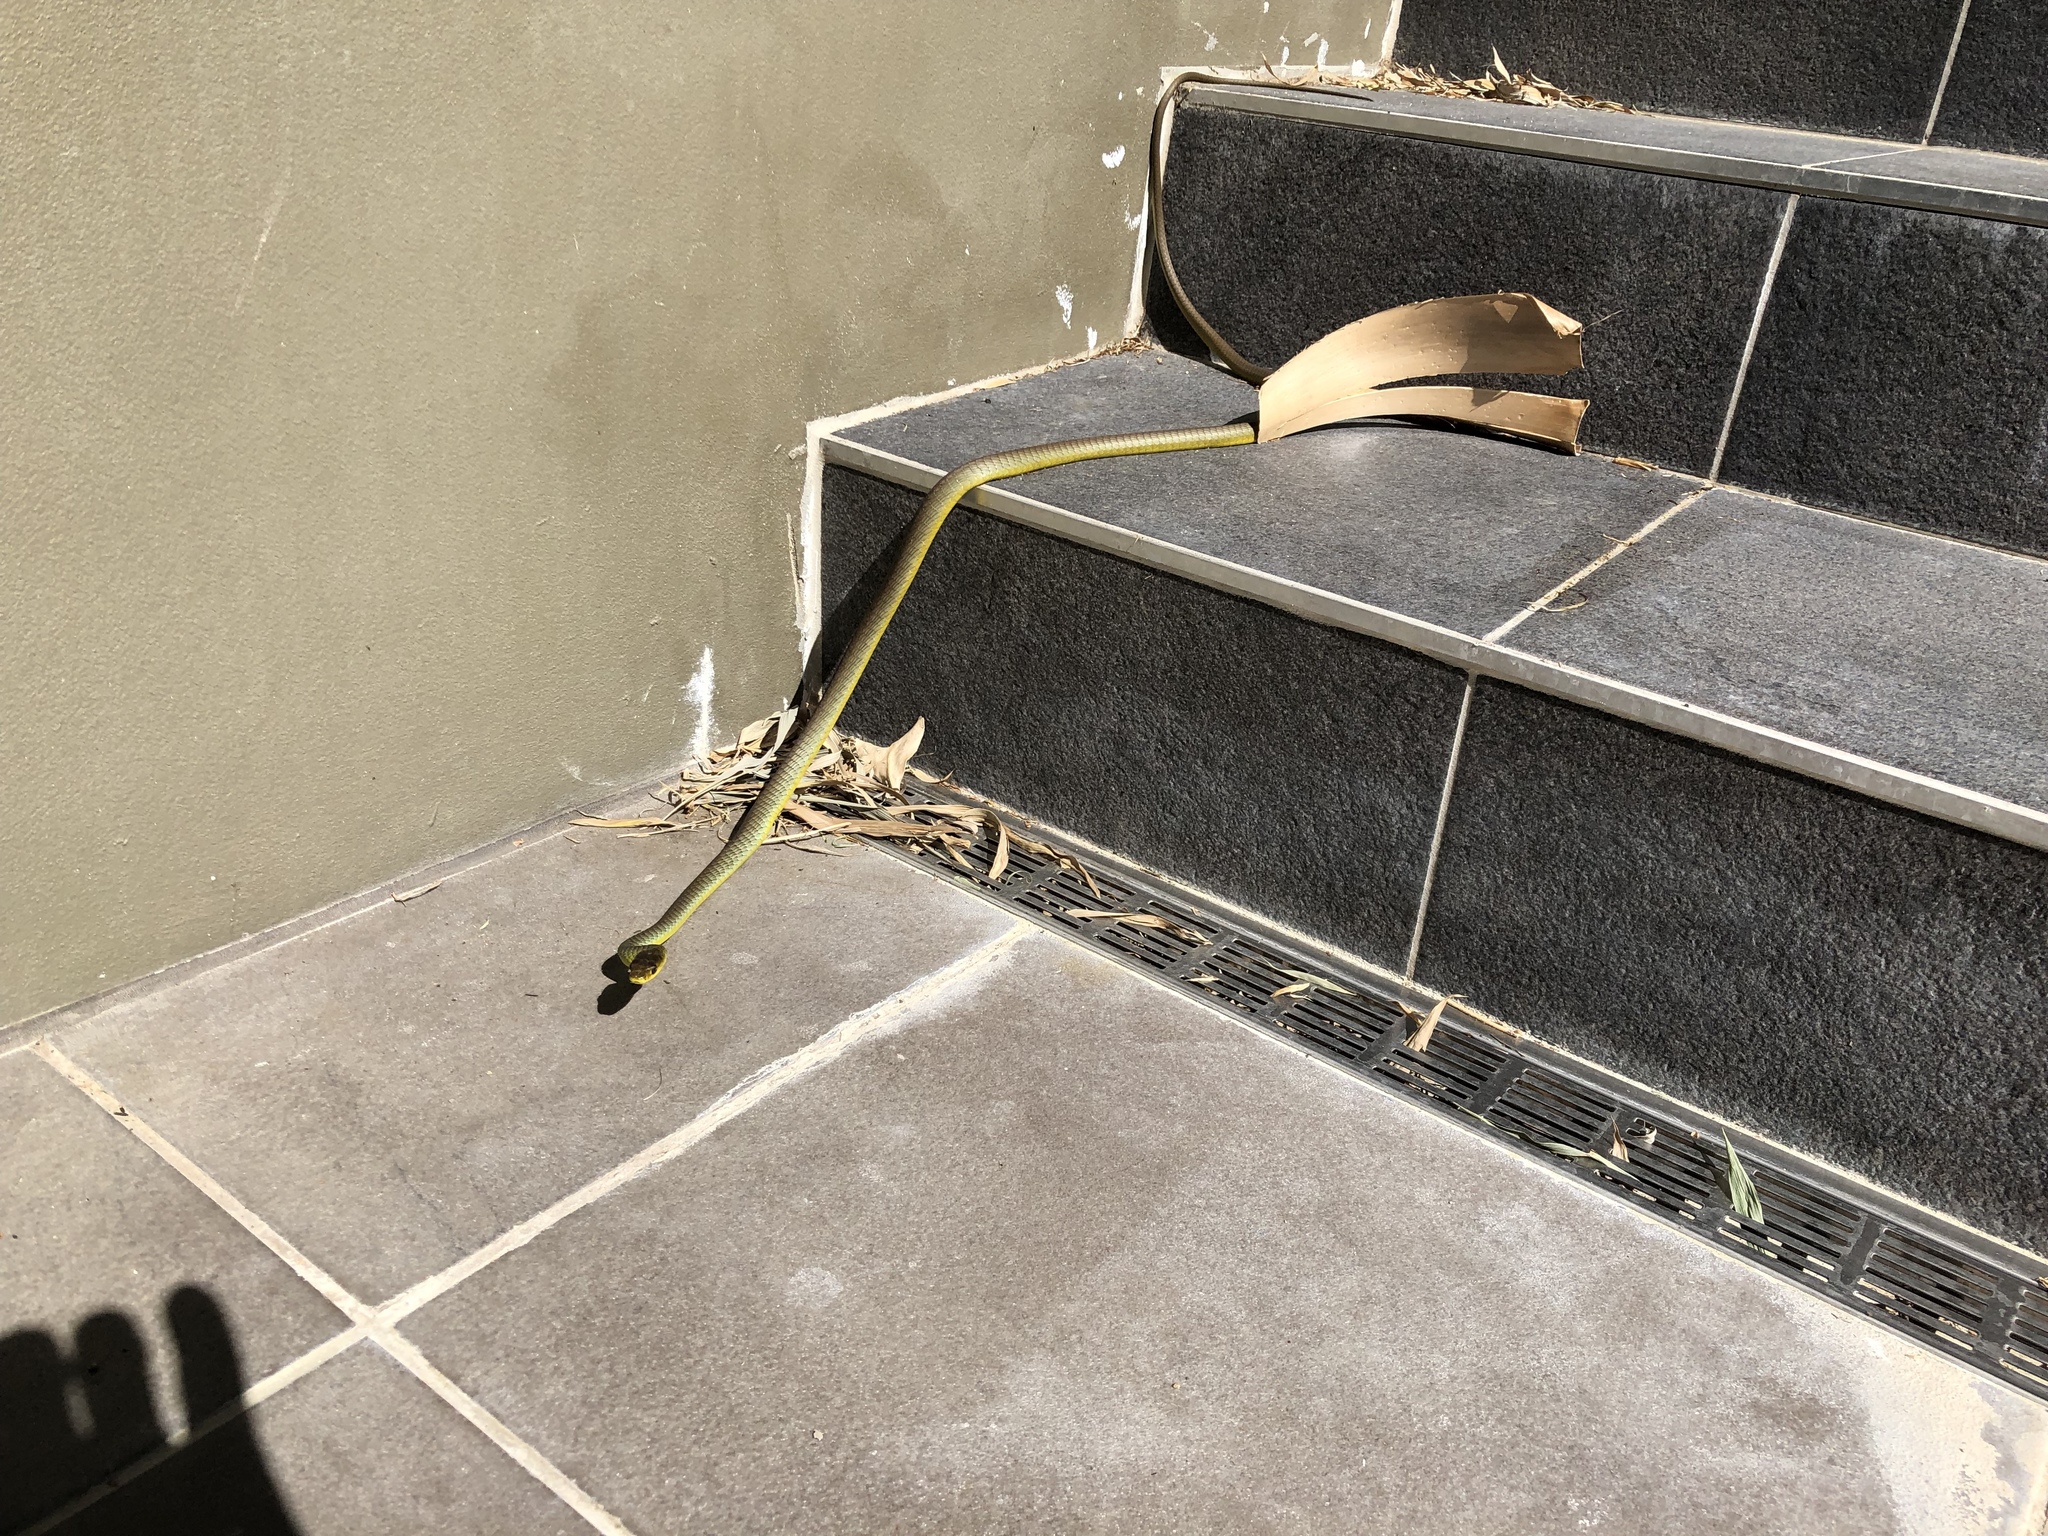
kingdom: Animalia
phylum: Chordata
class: Squamata
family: Colubridae
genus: Dendrelaphis
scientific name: Dendrelaphis punctulatus
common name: Common tree snake
